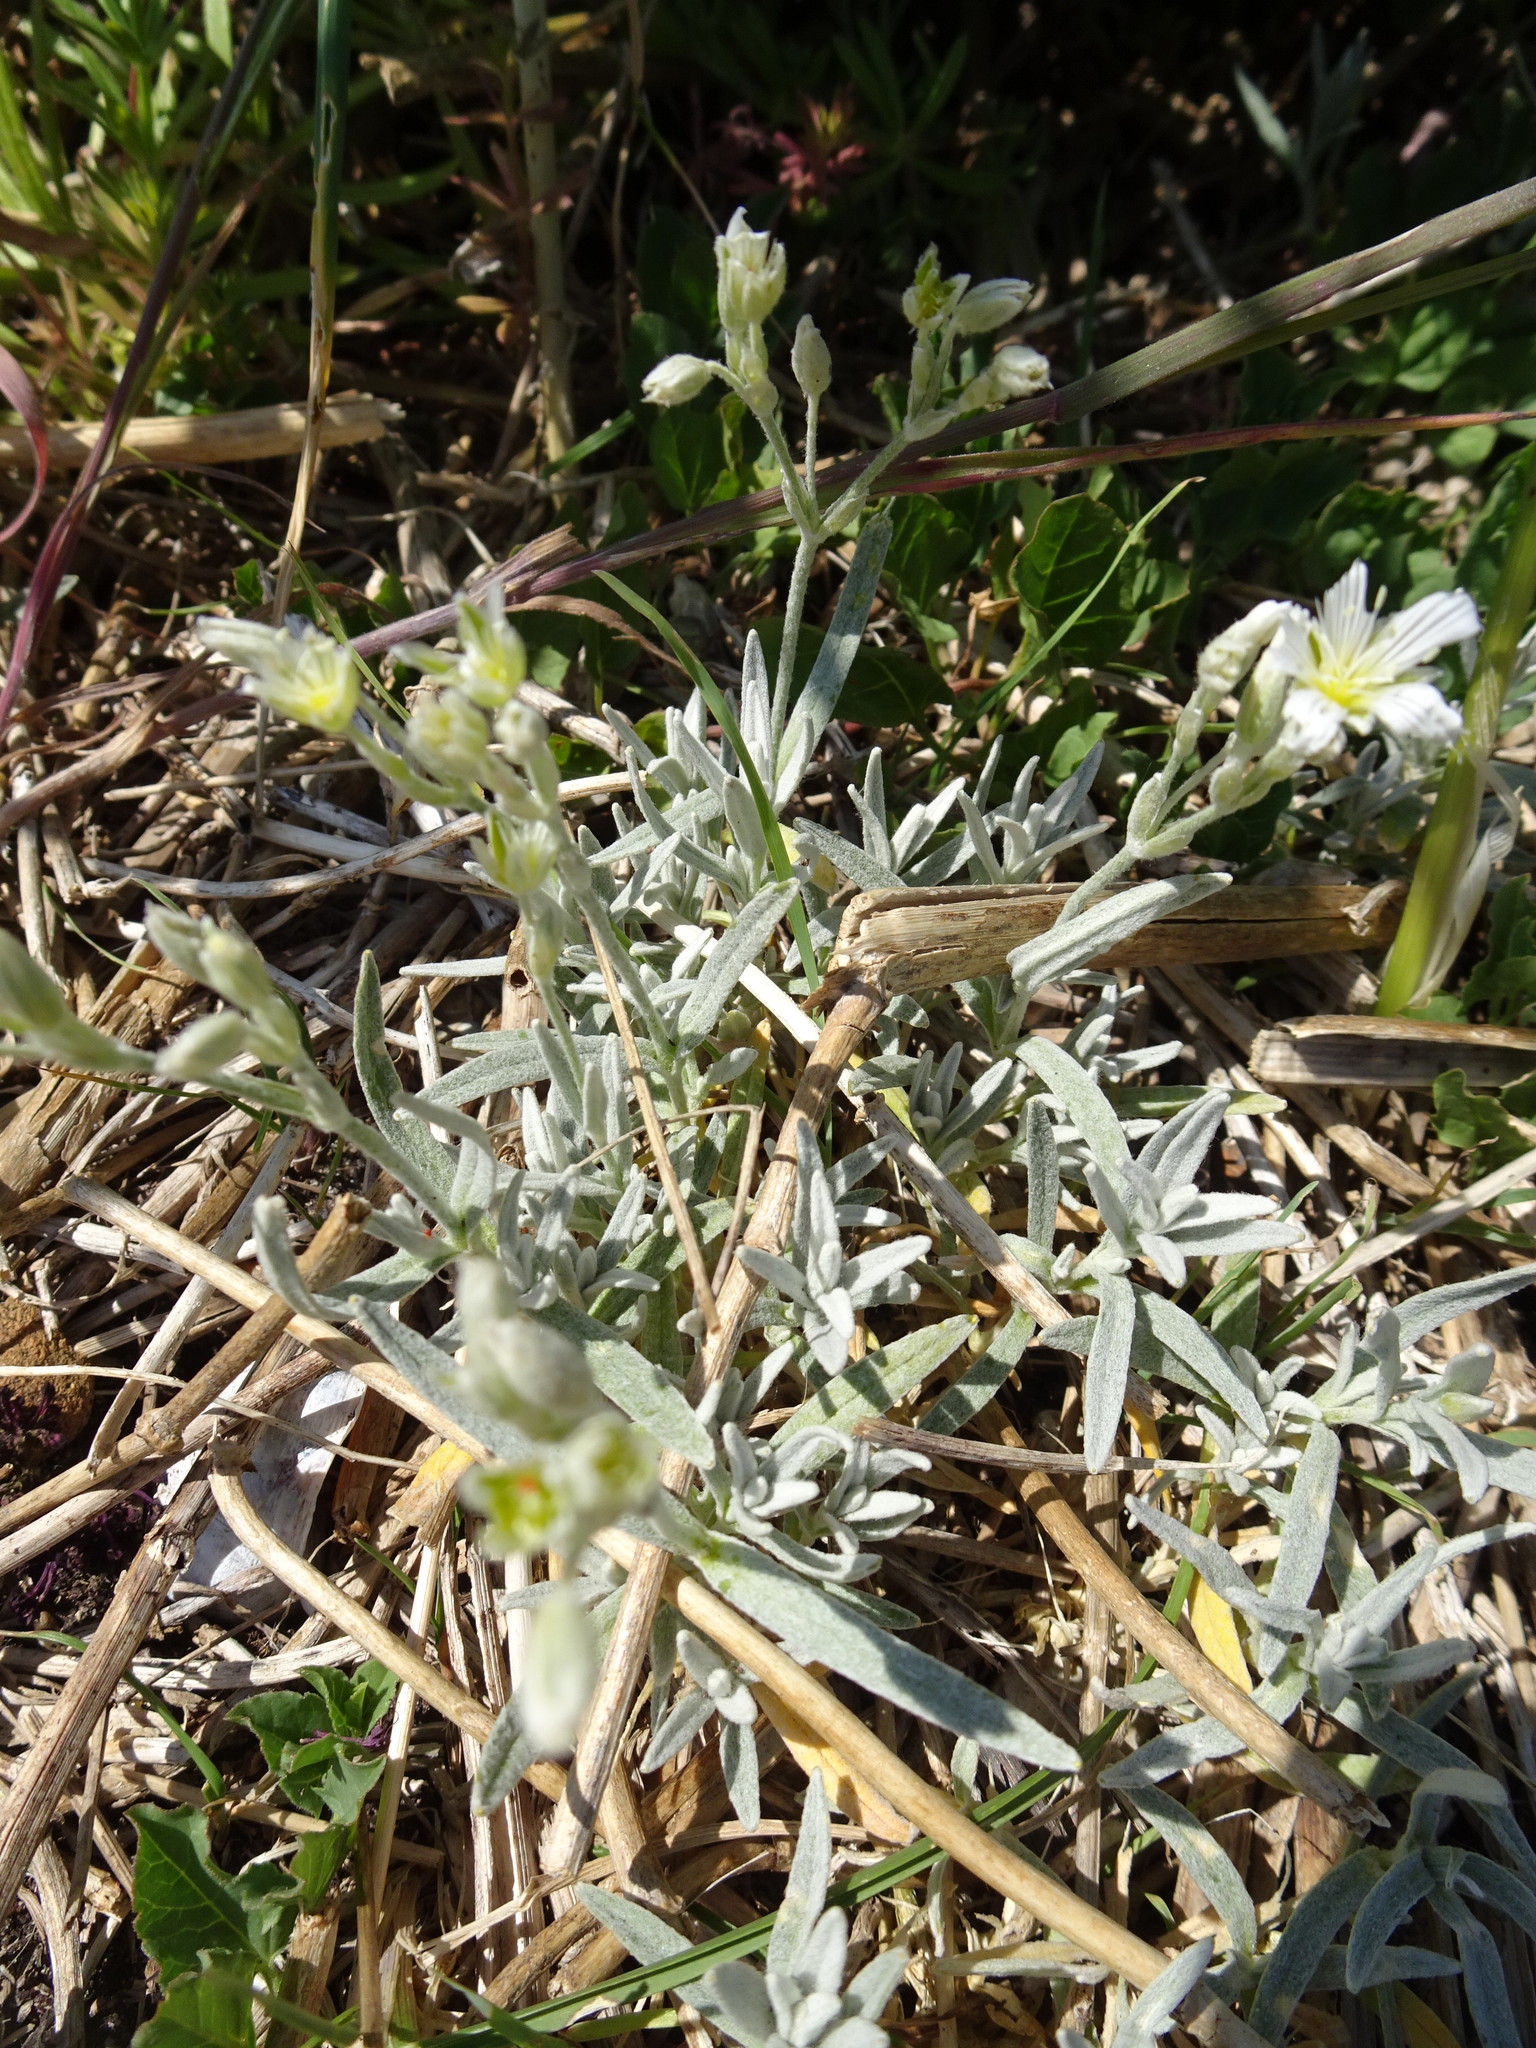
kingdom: Plantae
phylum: Tracheophyta
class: Magnoliopsida
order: Caryophyllales
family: Caryophyllaceae
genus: Cerastium
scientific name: Cerastium tomentosum
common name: Snow-in-summer
